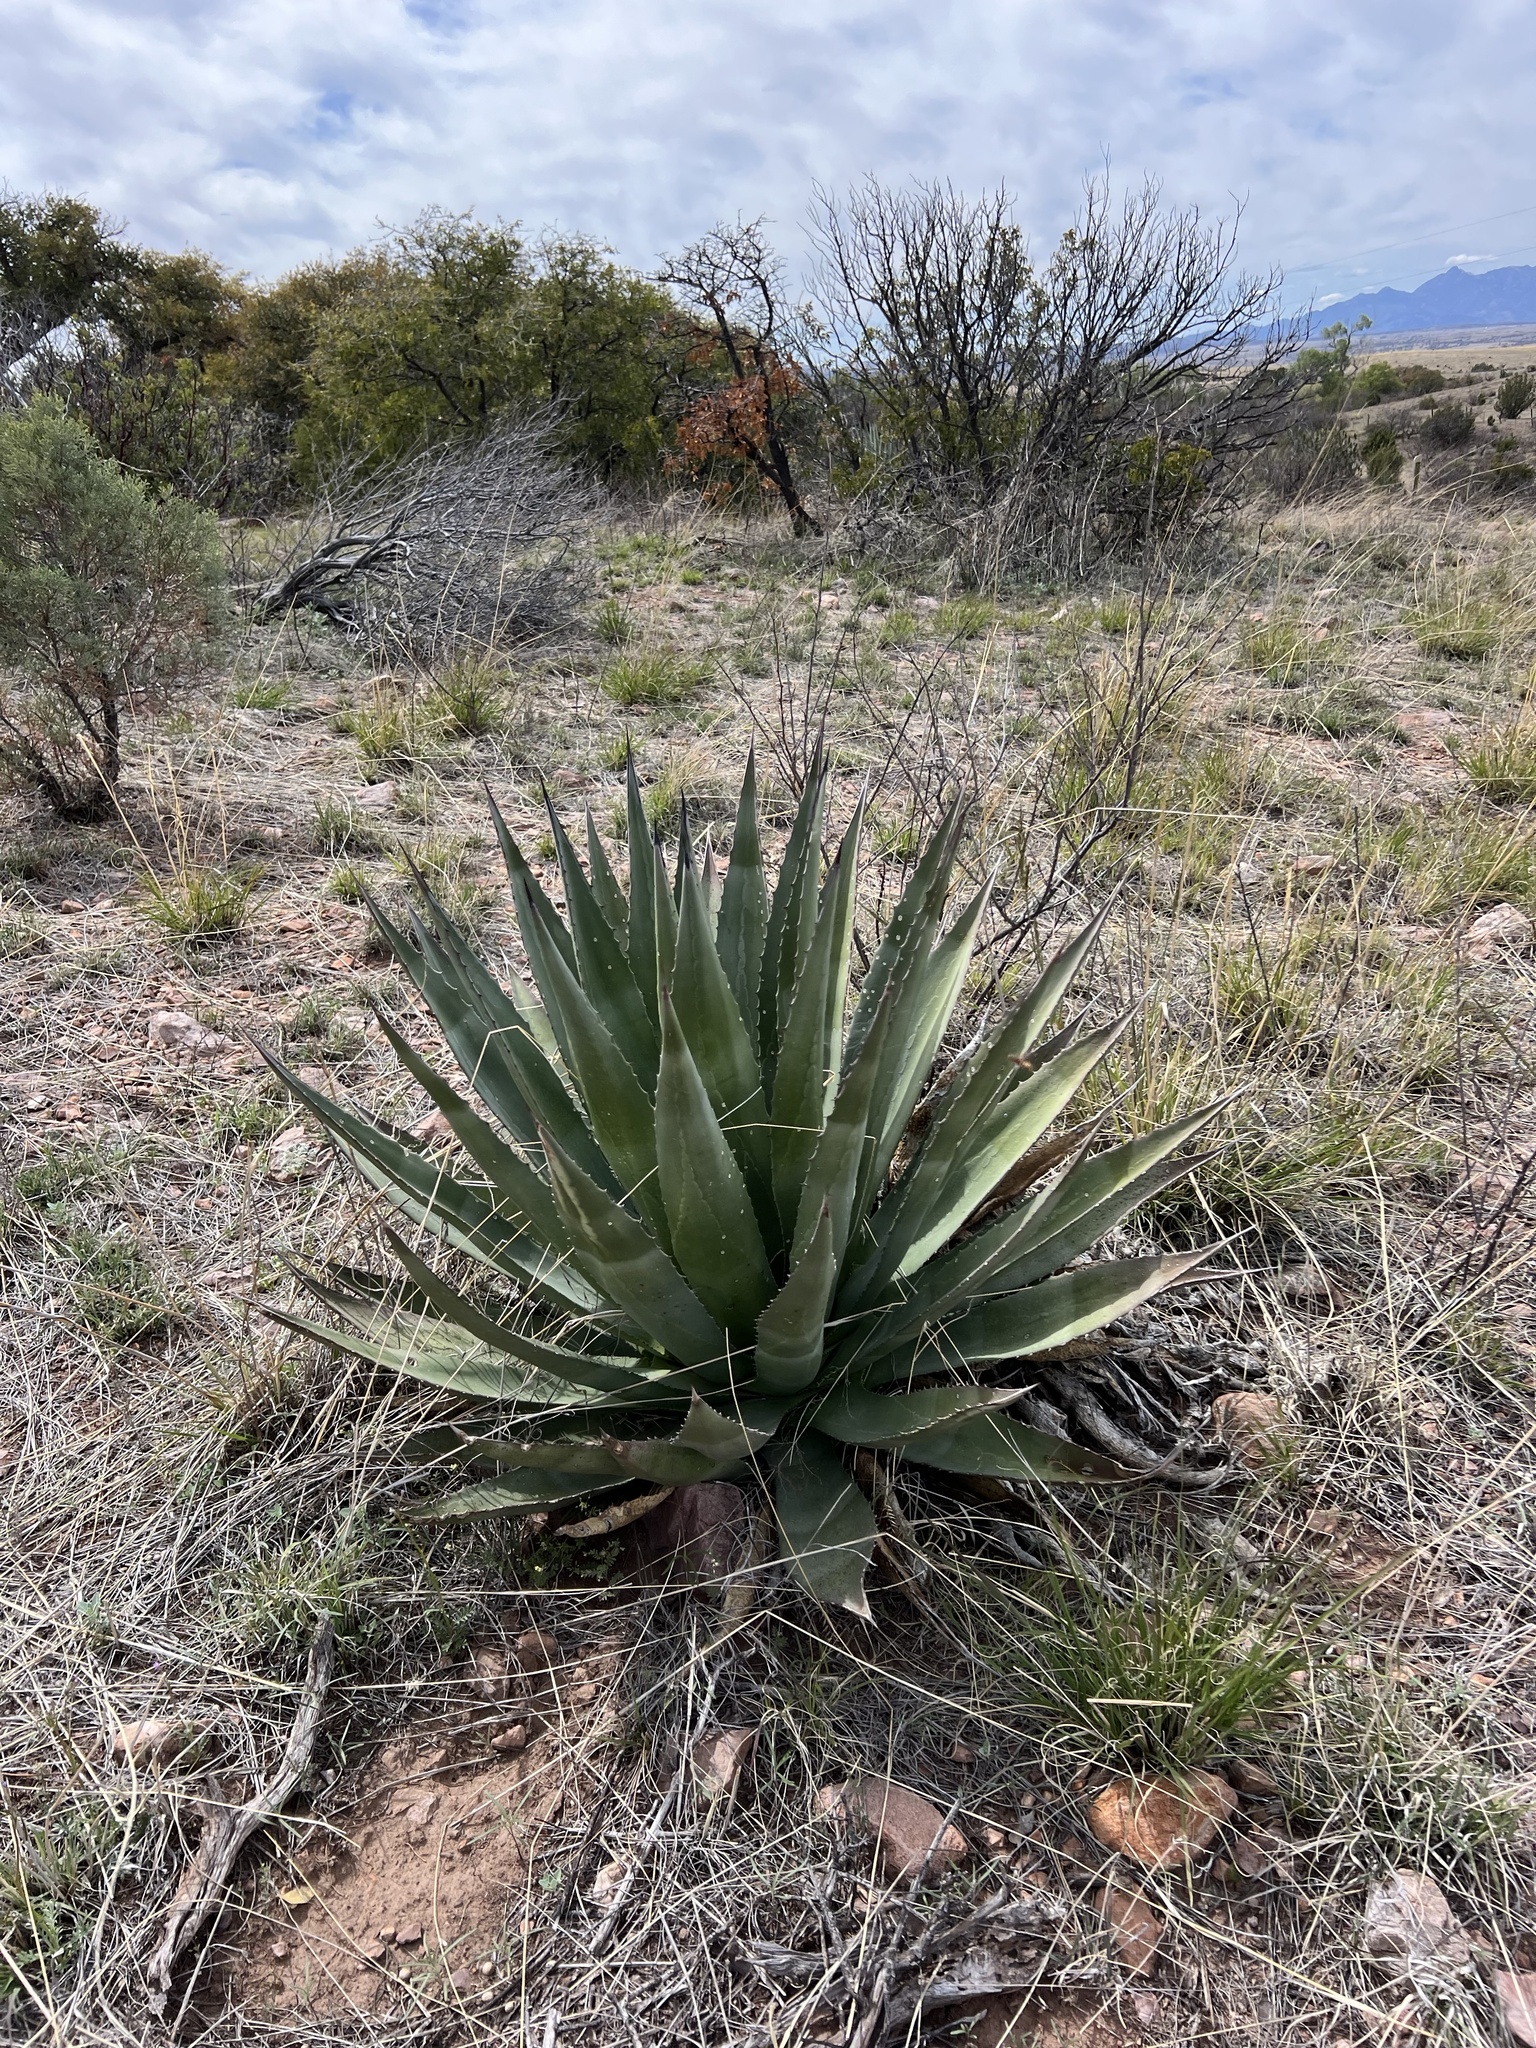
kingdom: Plantae
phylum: Tracheophyta
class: Liliopsida
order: Asparagales
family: Asparagaceae
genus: Agave
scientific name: Agave palmeri
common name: Palmer agave
